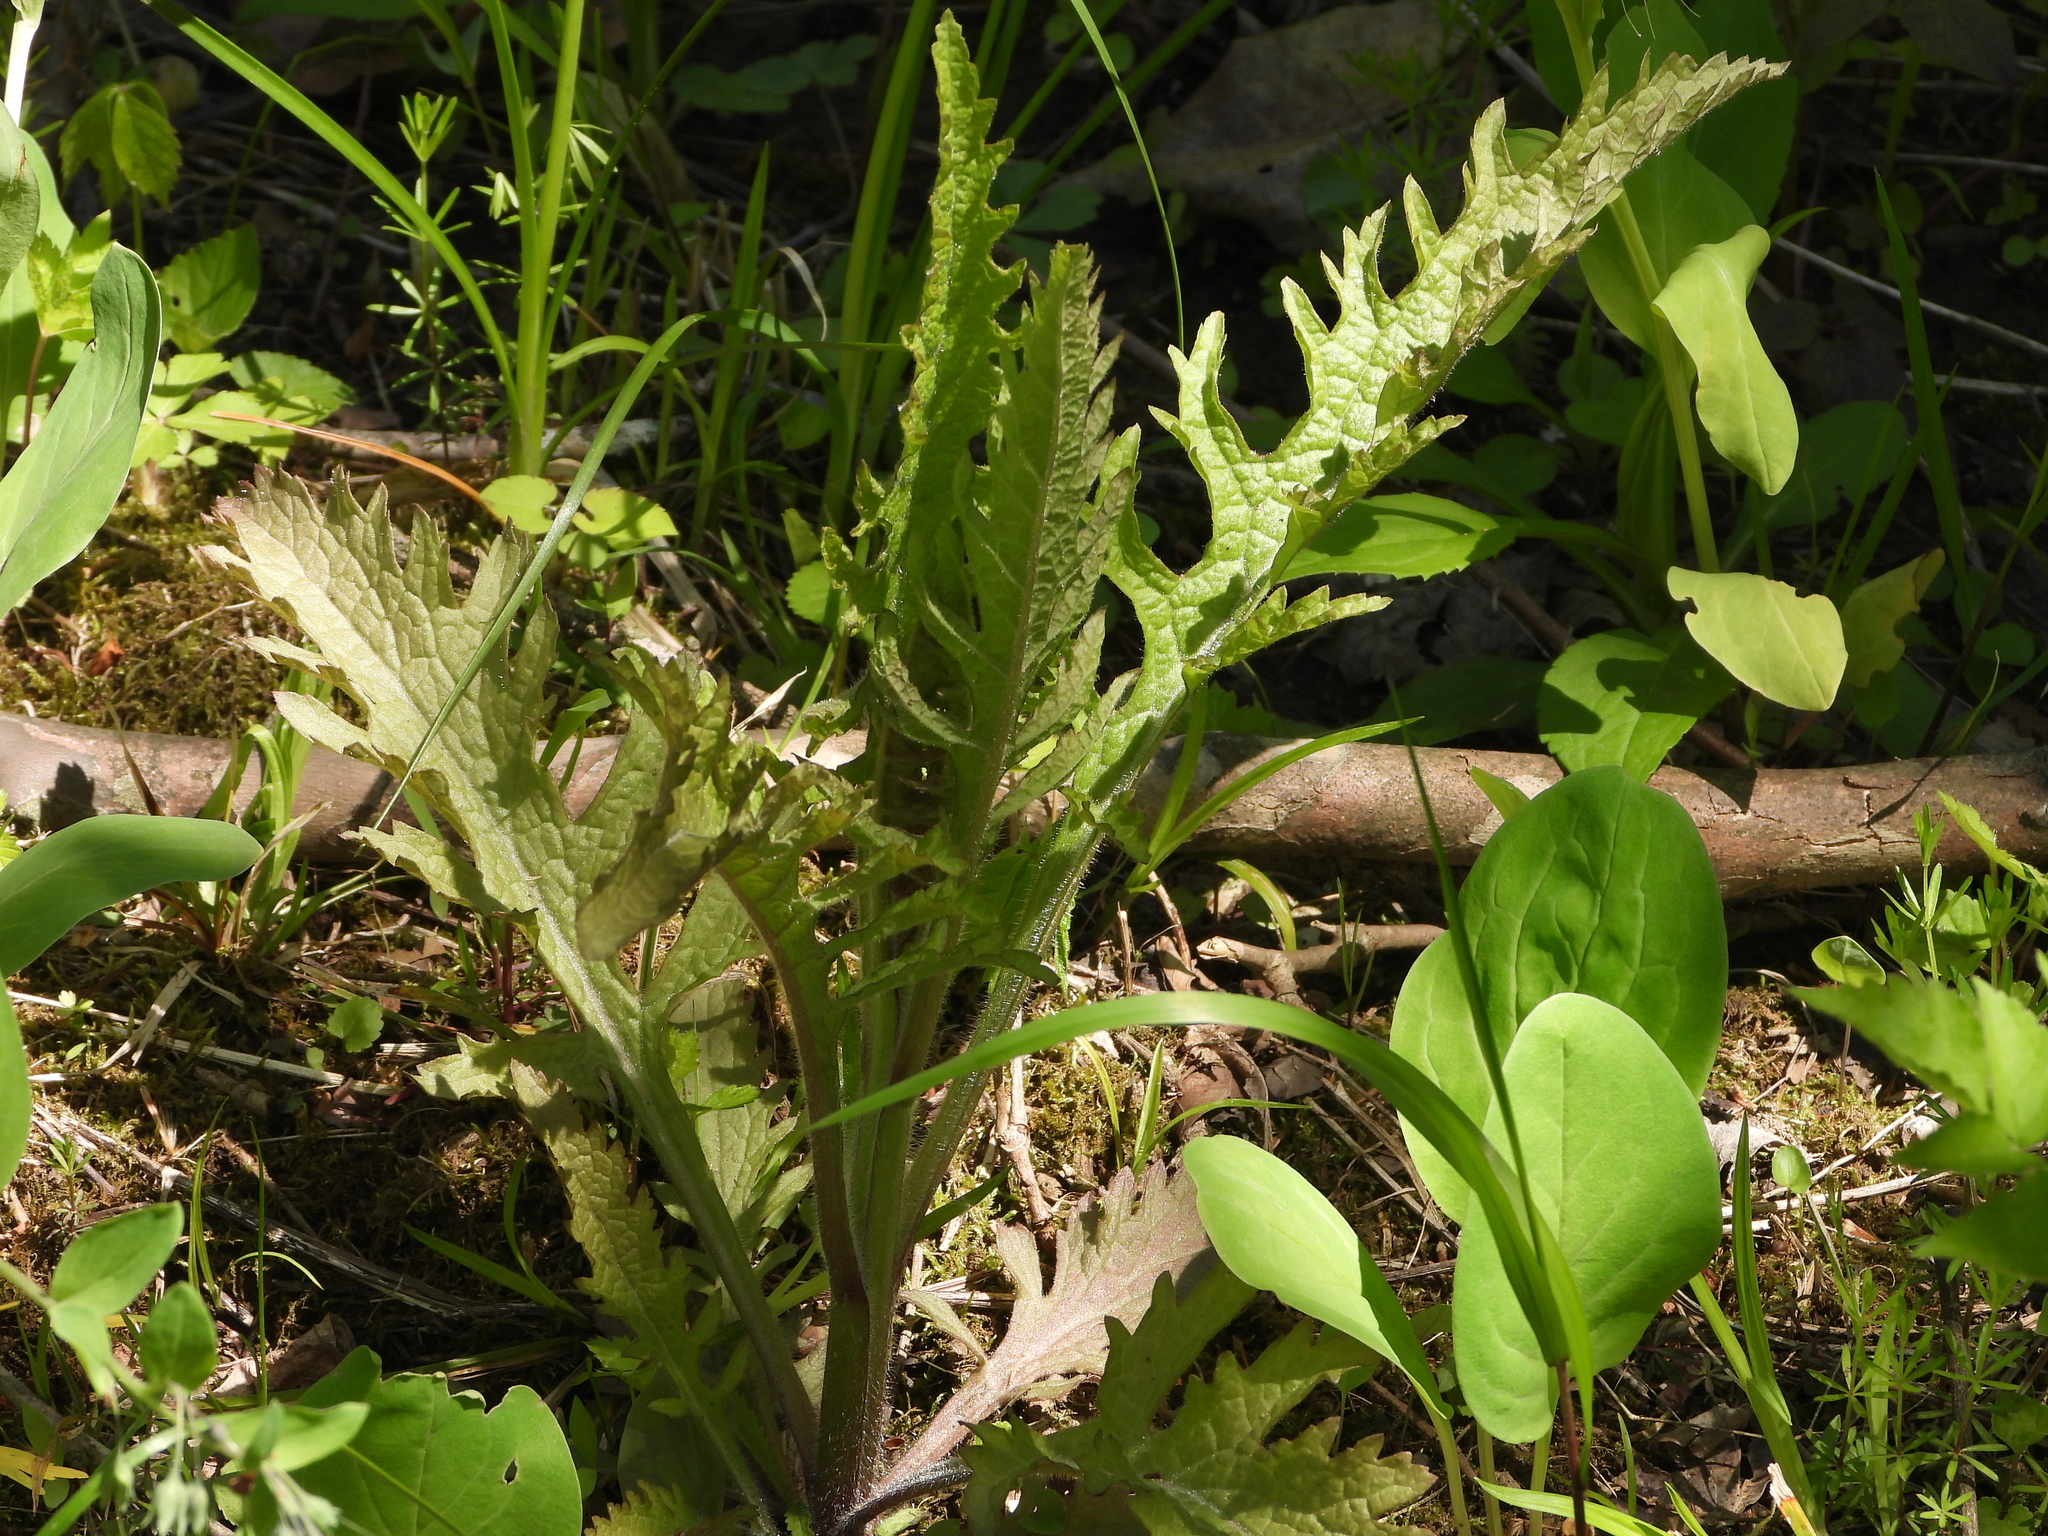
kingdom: Plantae
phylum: Tracheophyta
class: Magnoliopsida
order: Lamiales
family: Orobanchaceae
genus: Dasistoma
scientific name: Dasistoma macrophyllum
